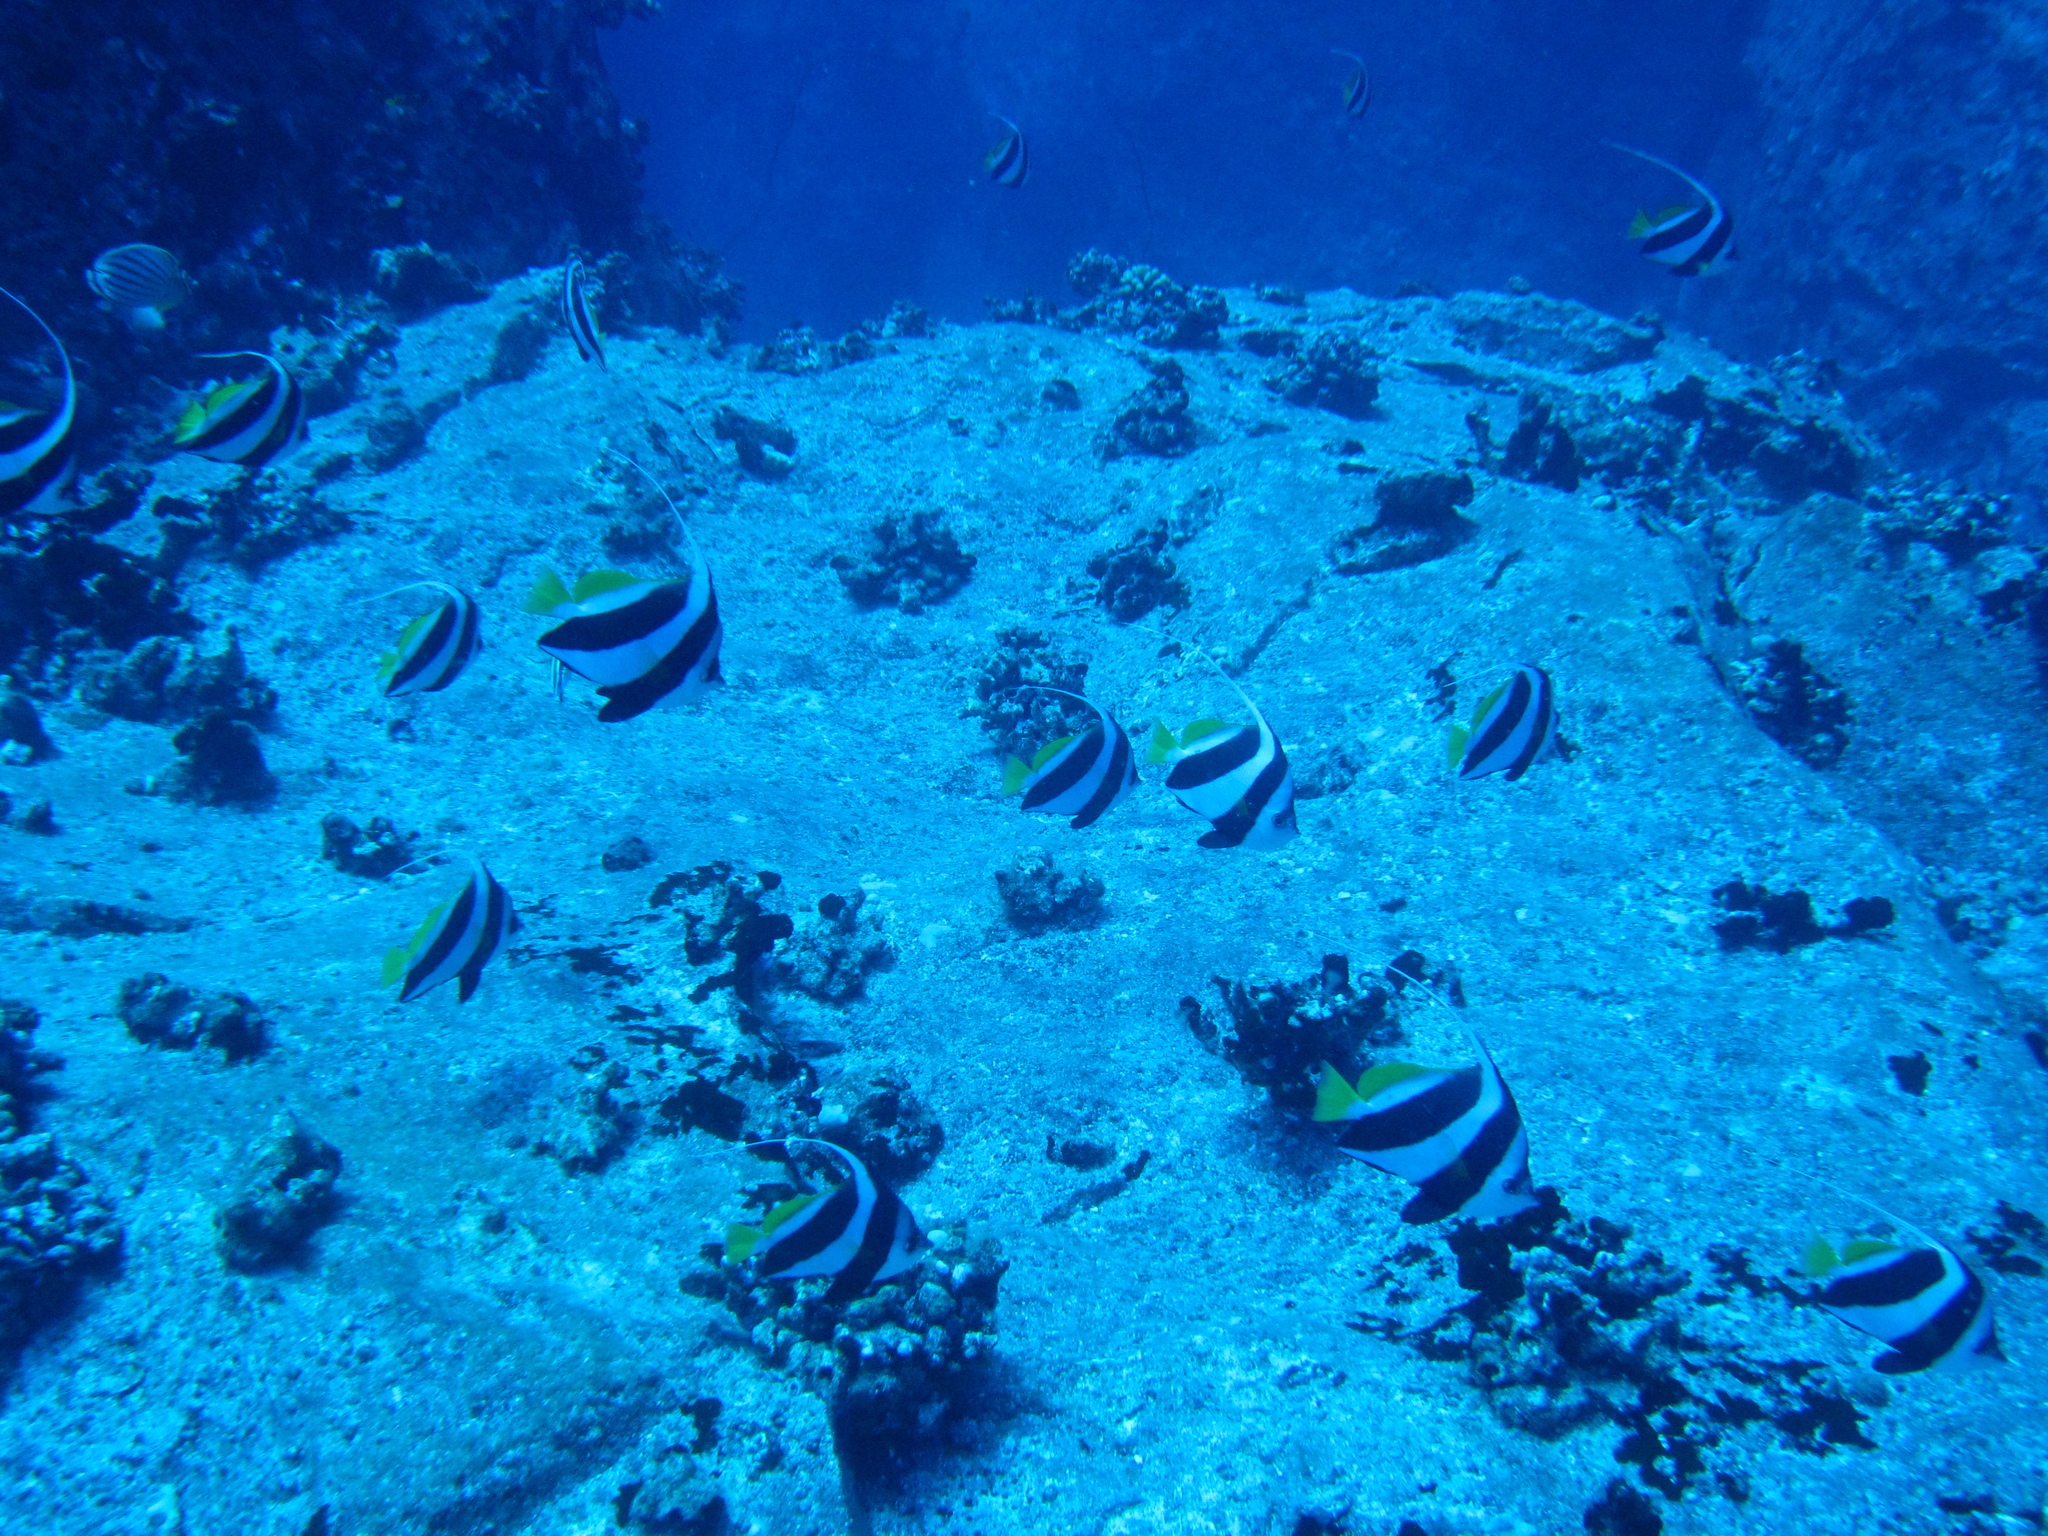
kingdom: Animalia
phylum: Chordata
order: Perciformes
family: Chaetodontidae
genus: Heniochus
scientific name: Heniochus diphreutes
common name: Pennantfish
